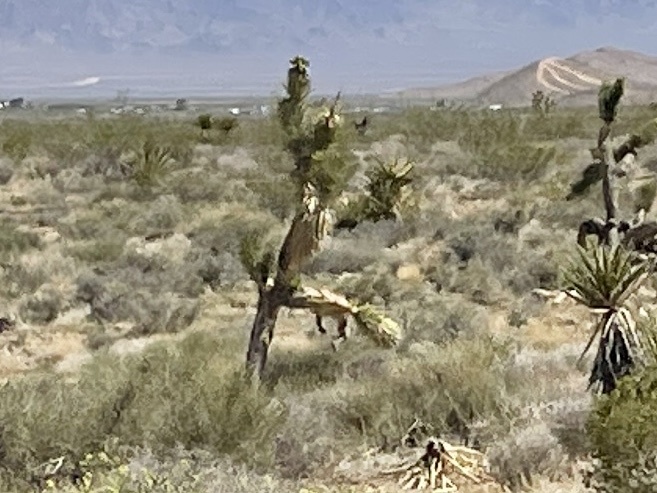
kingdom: Plantae
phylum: Tracheophyta
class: Liliopsida
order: Asparagales
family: Asparagaceae
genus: Yucca
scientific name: Yucca brevifolia
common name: Joshua tree
